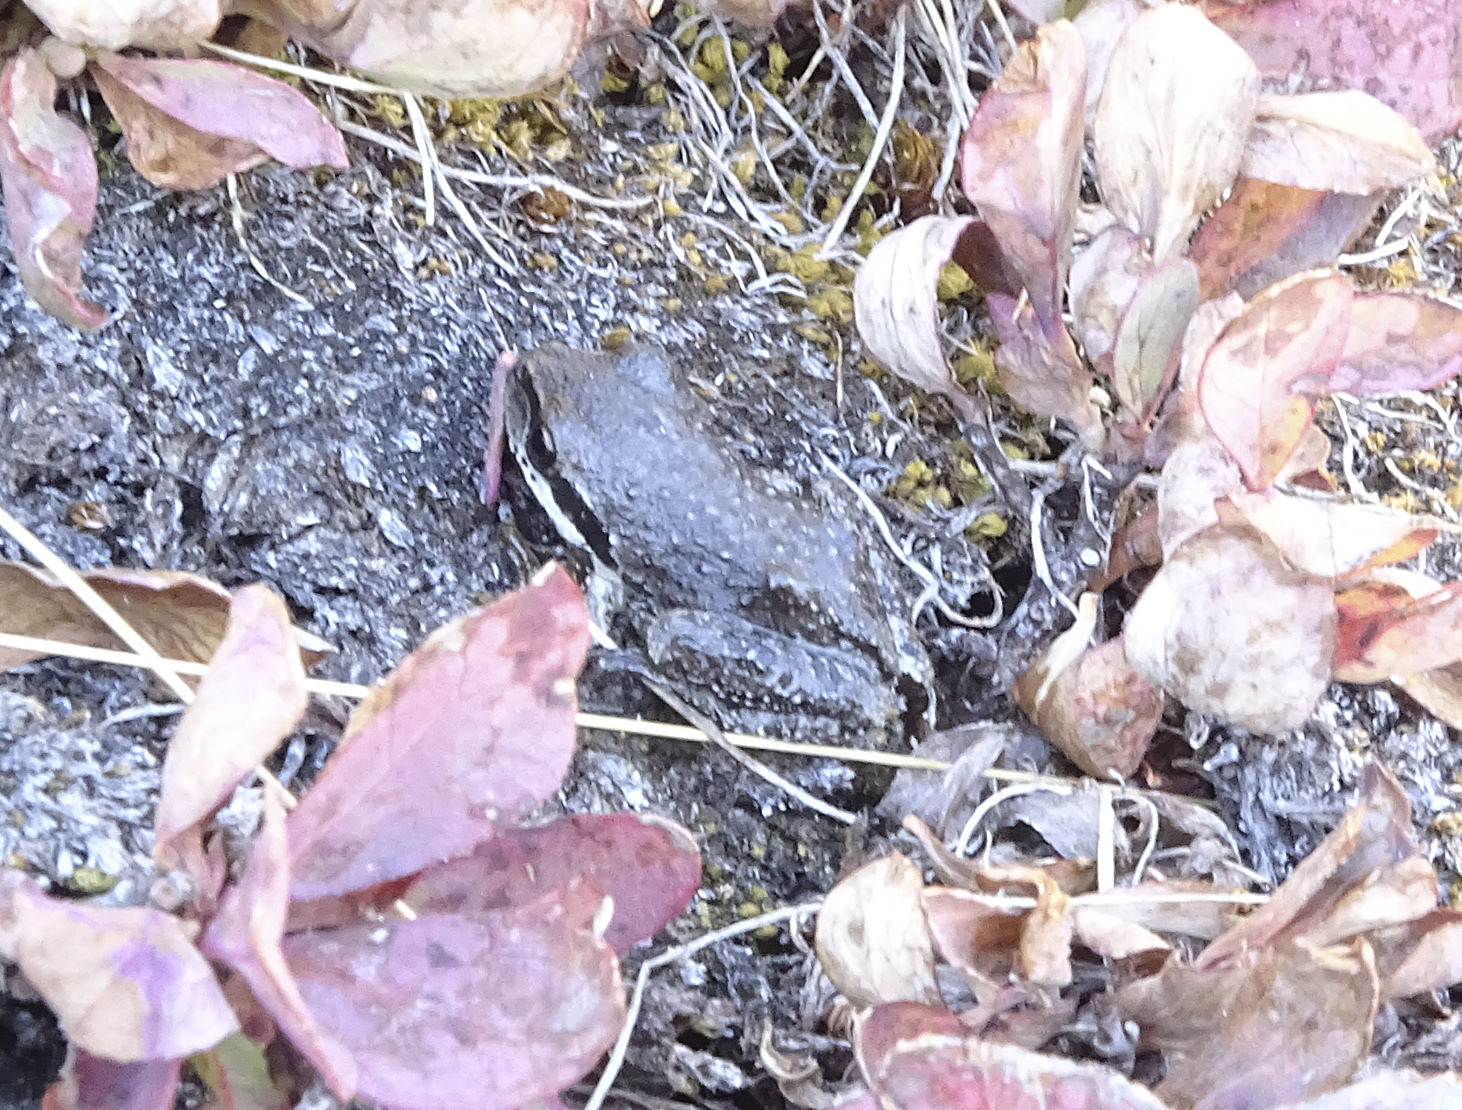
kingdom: Animalia
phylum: Chordata
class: Amphibia
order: Anura
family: Hylidae
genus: Pseudacris
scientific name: Pseudacris regilla
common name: Pacific chorus frog
